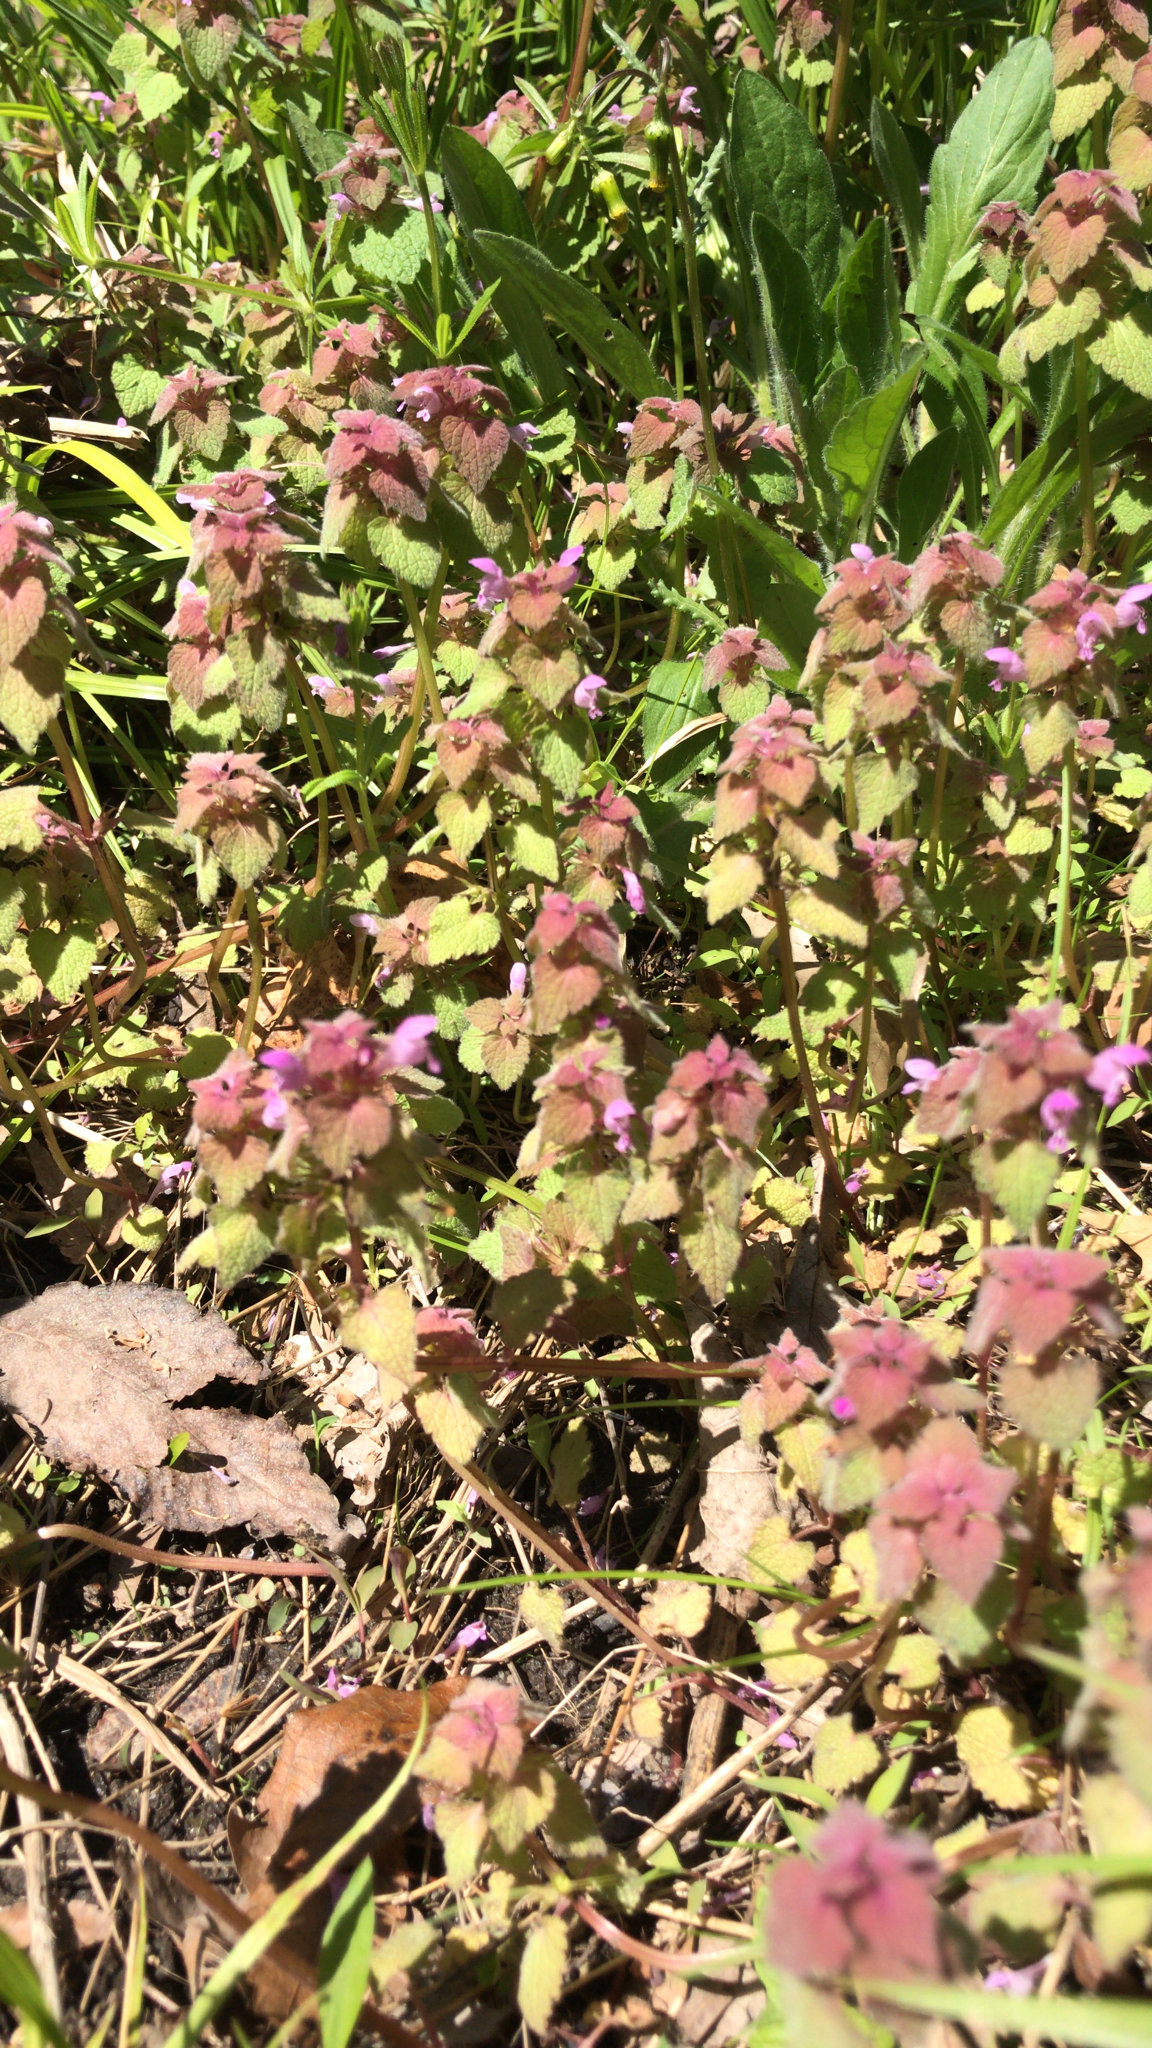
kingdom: Plantae
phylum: Tracheophyta
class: Magnoliopsida
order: Lamiales
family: Lamiaceae
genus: Lamium
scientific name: Lamium purpureum
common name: Red dead-nettle
